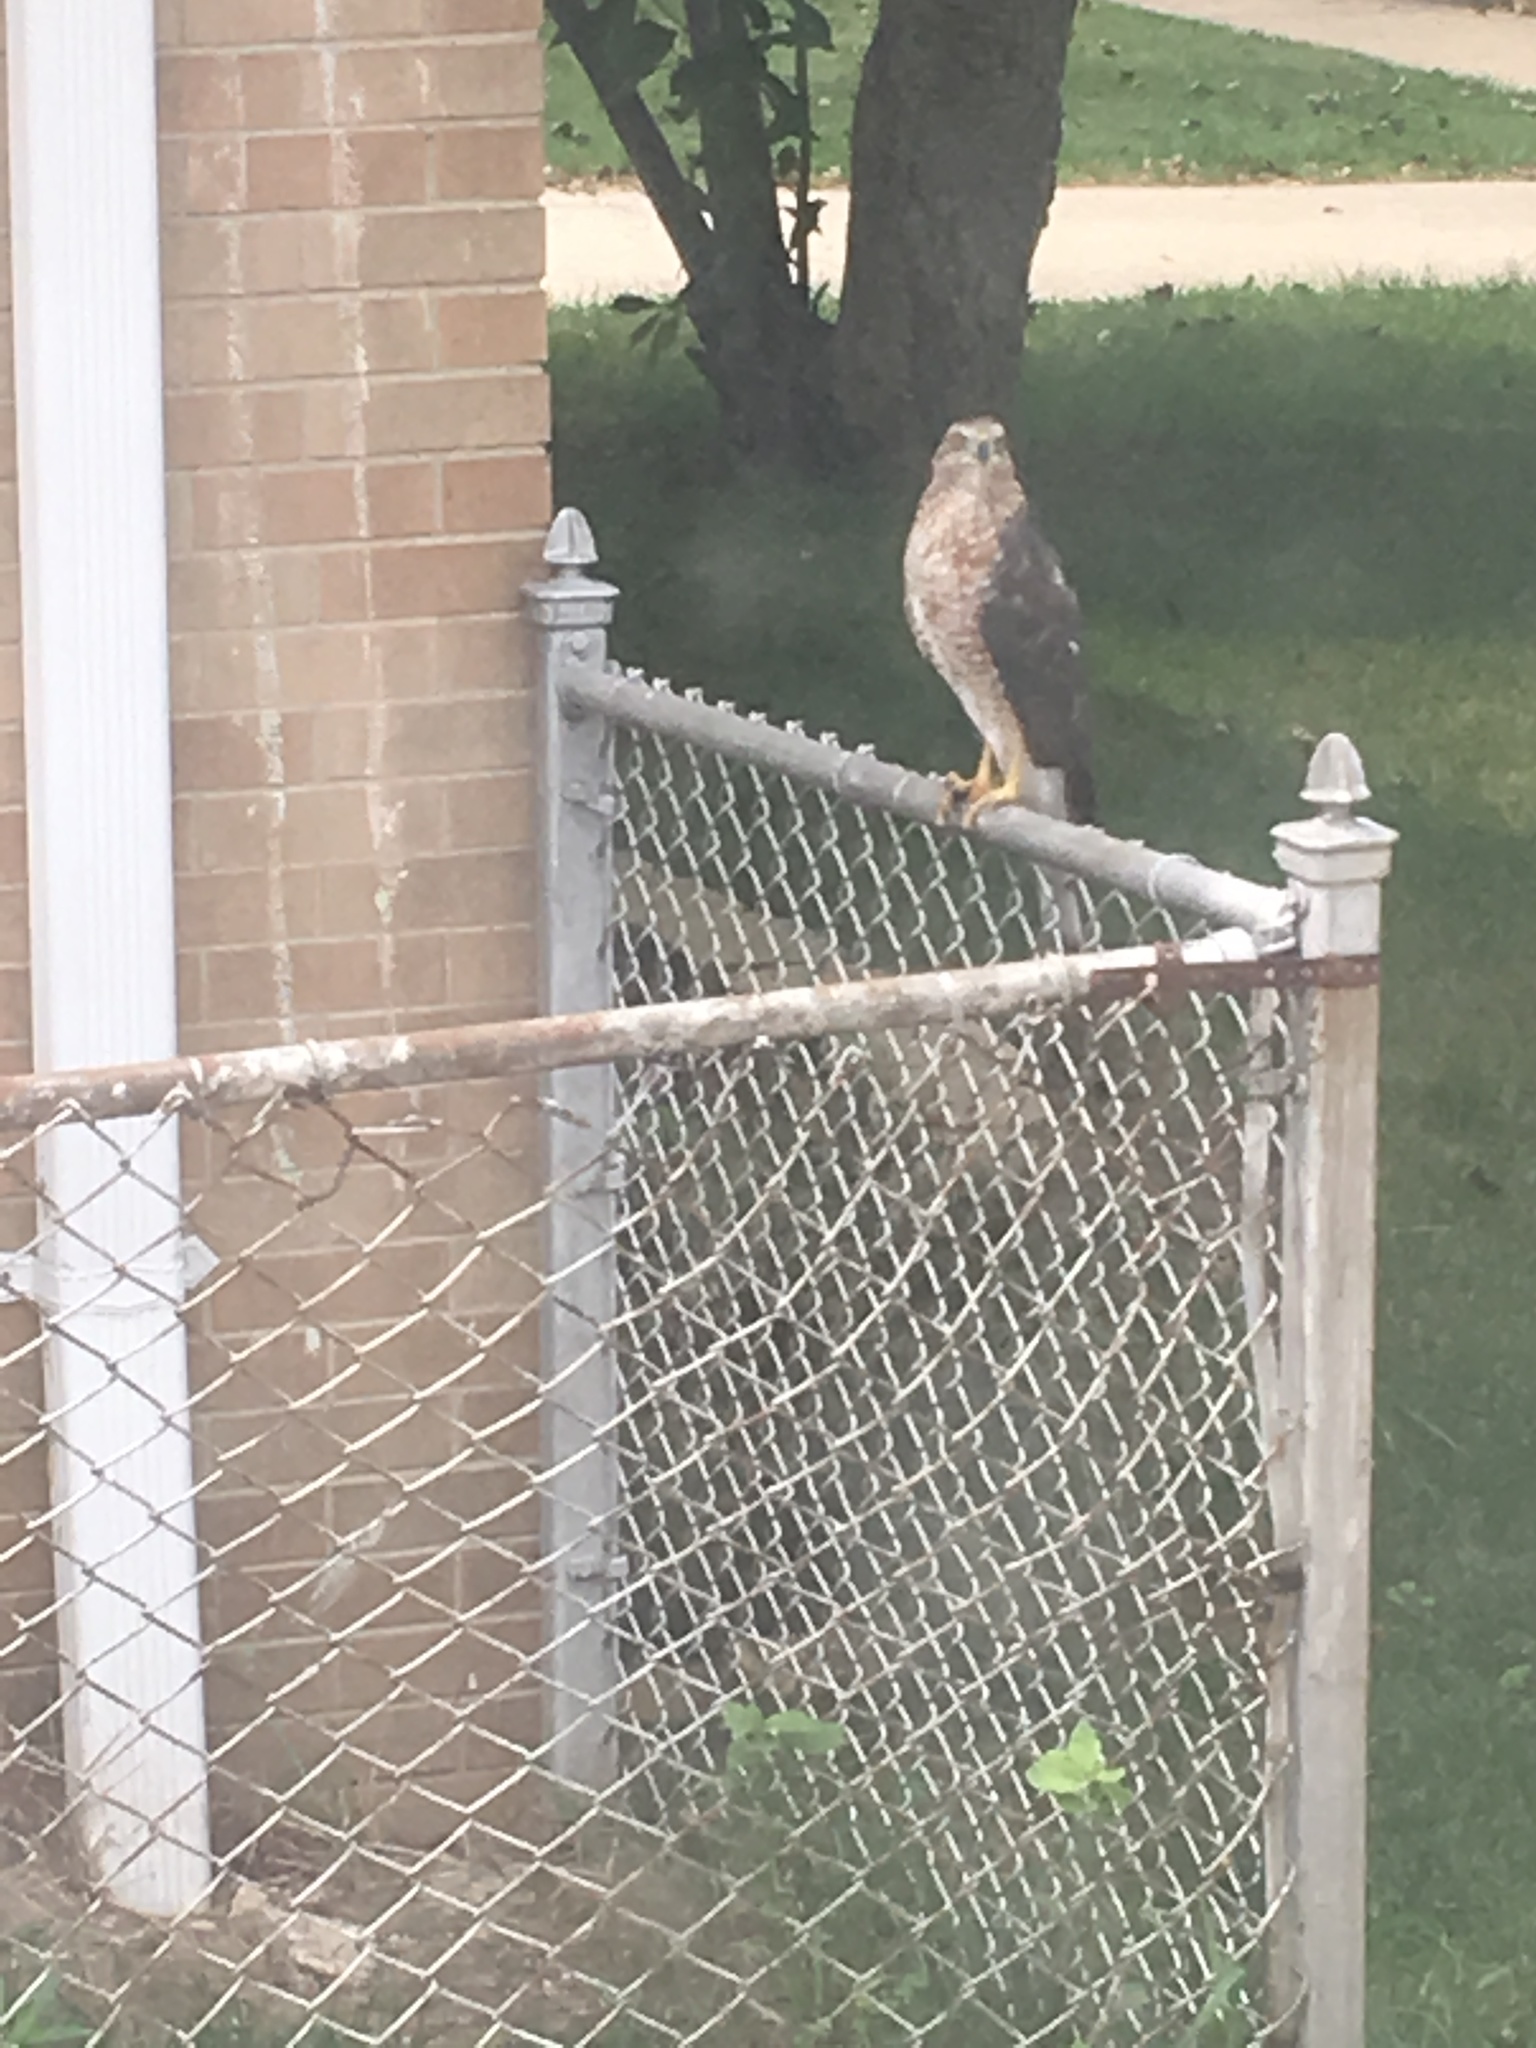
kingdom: Animalia
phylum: Chordata
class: Aves
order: Accipitriformes
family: Accipitridae
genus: Accipiter
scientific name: Accipiter cooperii
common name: Cooper's hawk
